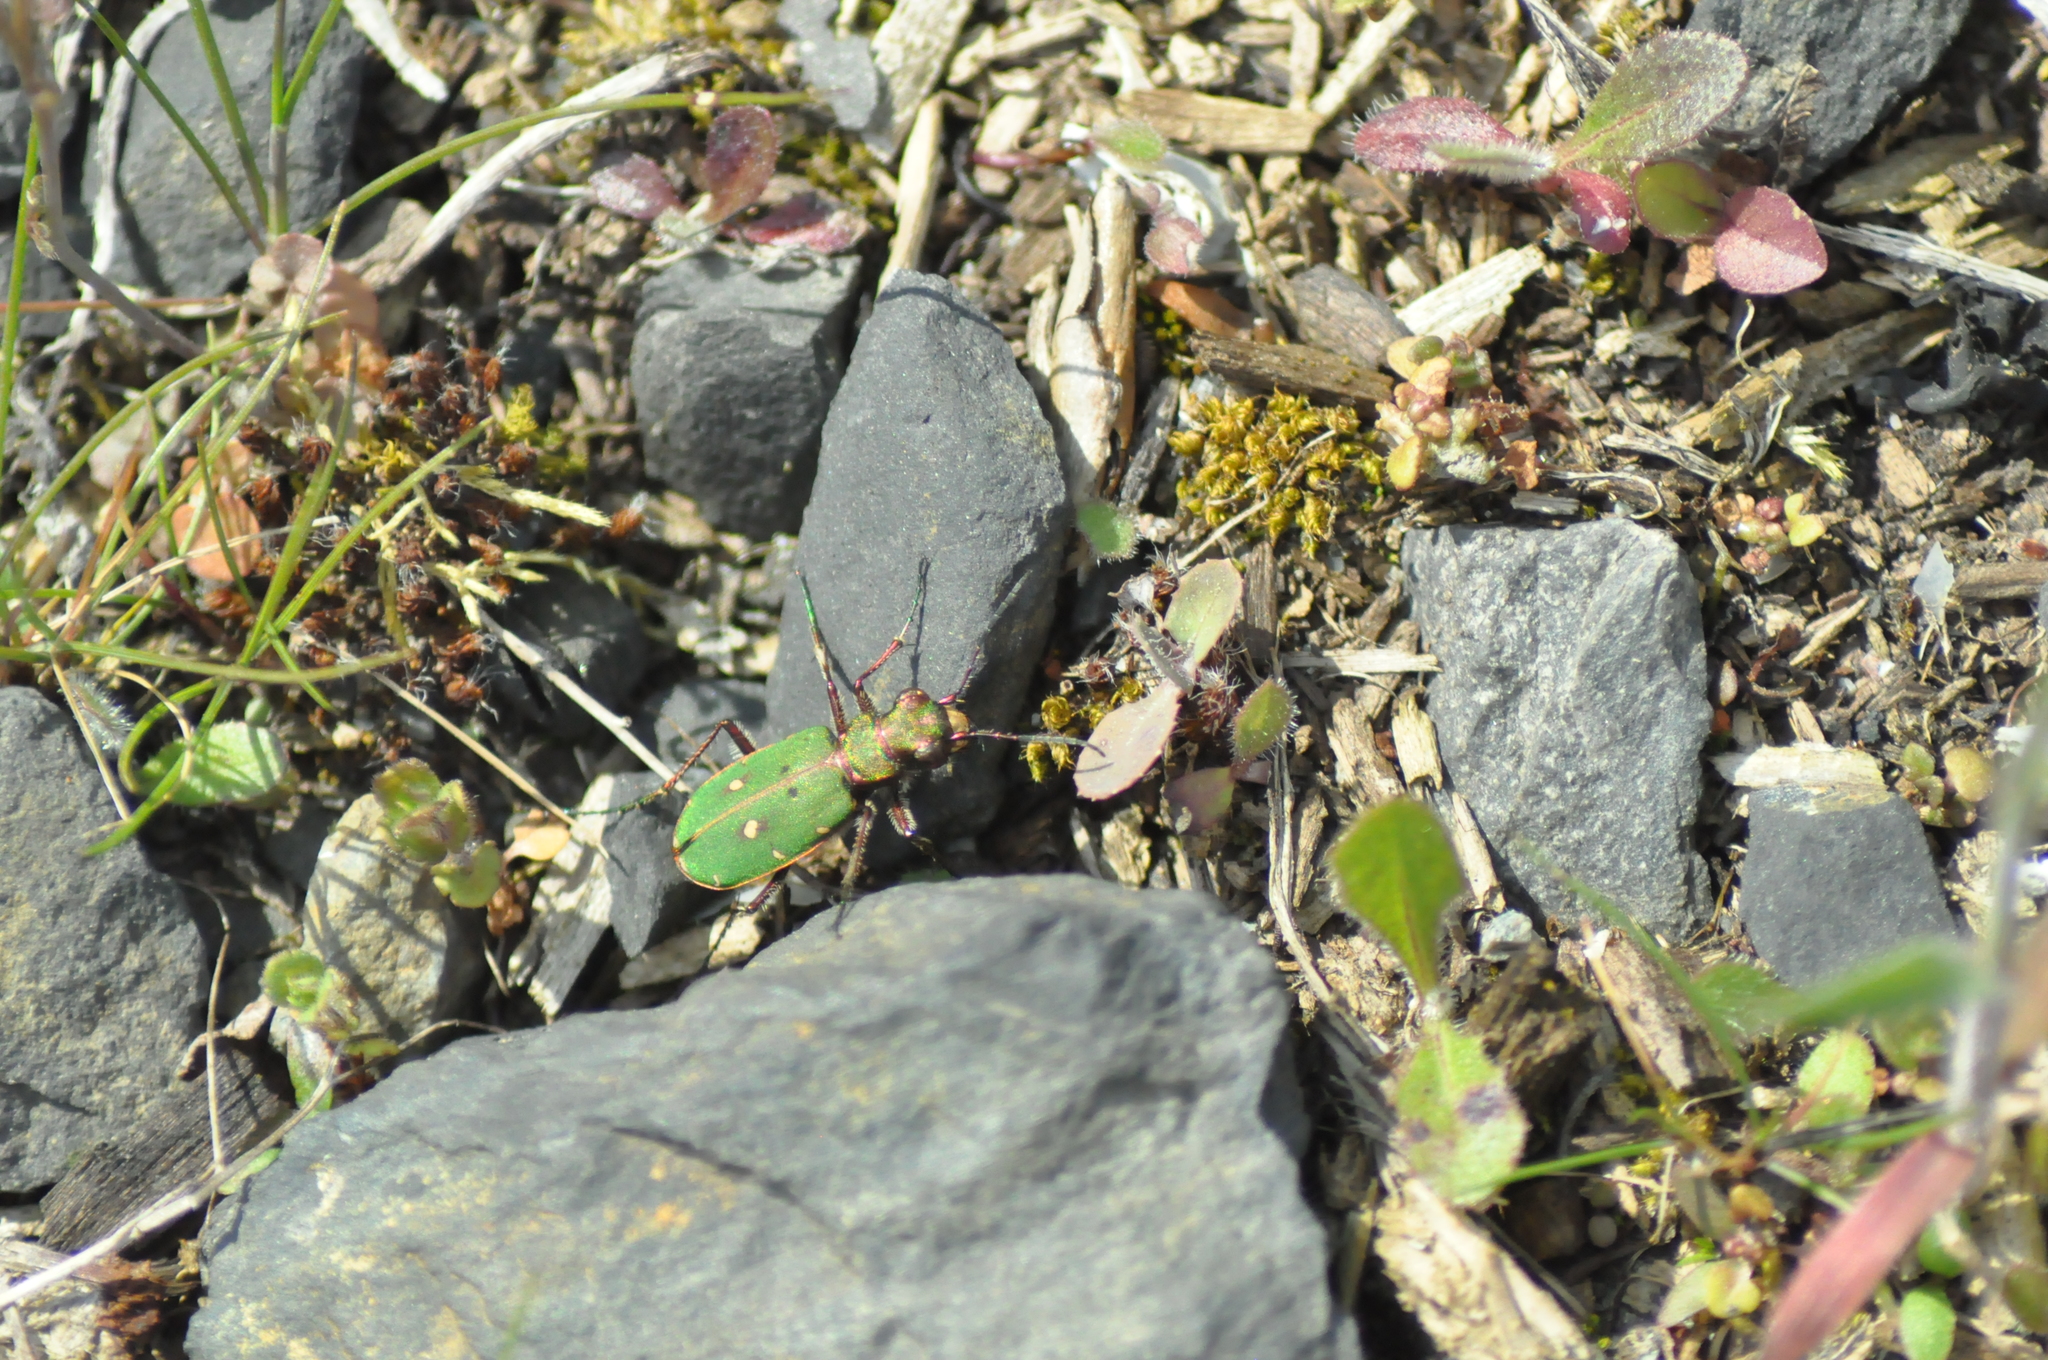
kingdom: Animalia
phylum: Arthropoda
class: Insecta
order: Coleoptera
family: Carabidae
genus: Cicindela
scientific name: Cicindela campestris
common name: Common tiger beetle
